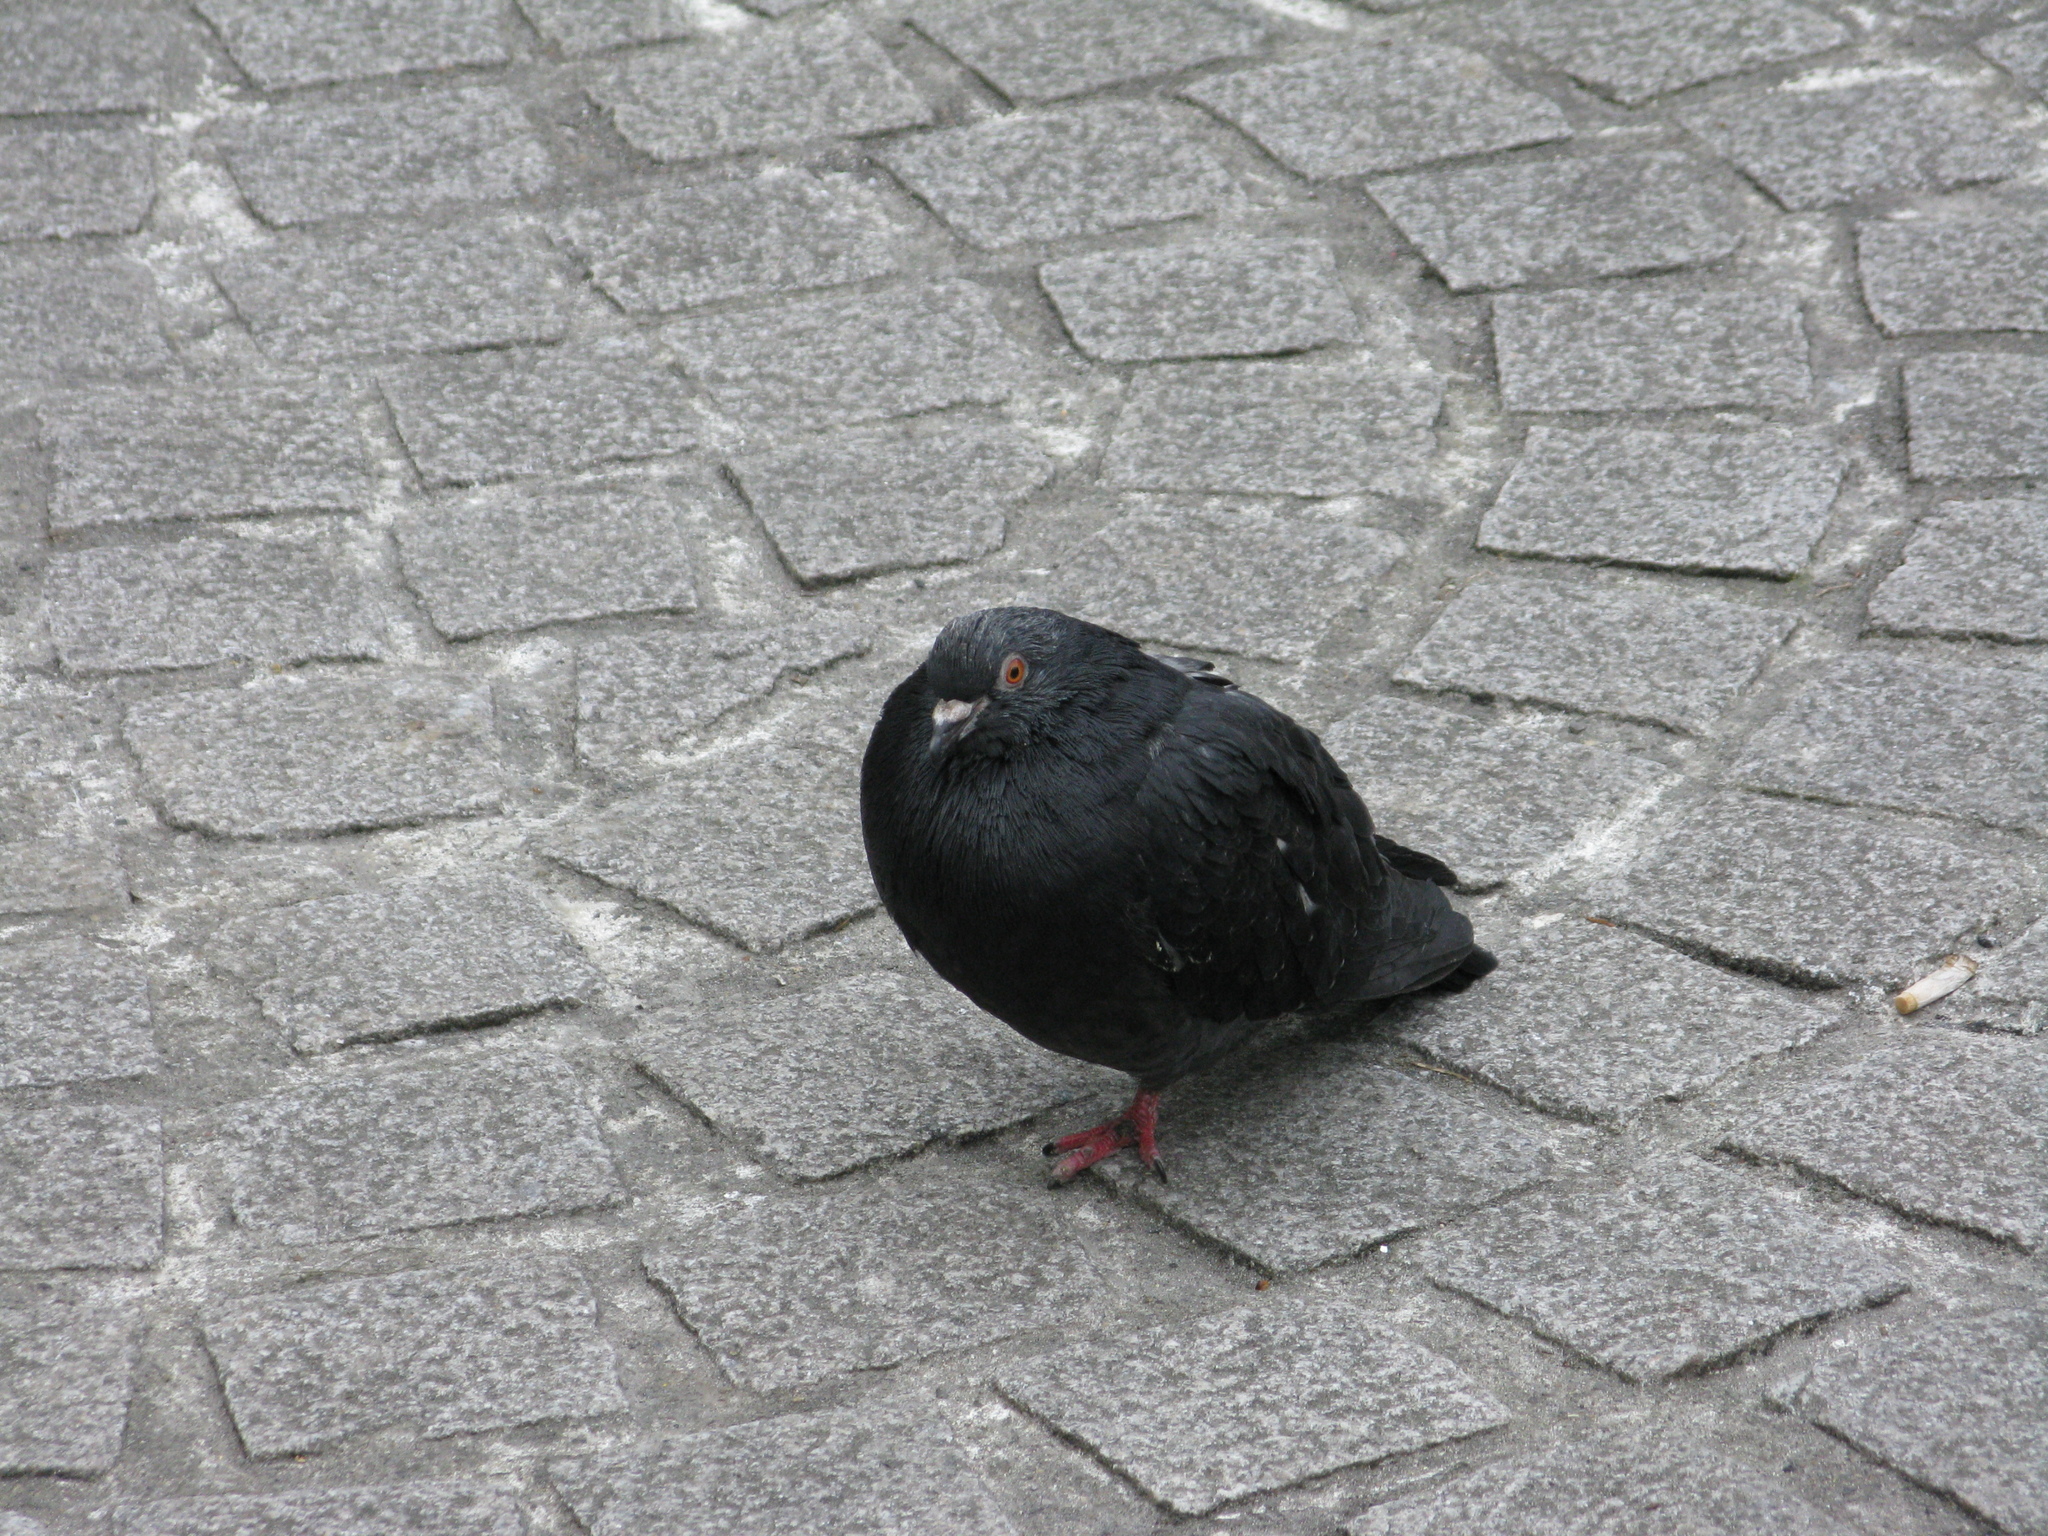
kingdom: Animalia
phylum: Chordata
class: Aves
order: Columbiformes
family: Columbidae
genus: Columba
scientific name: Columba livia
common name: Rock pigeon
